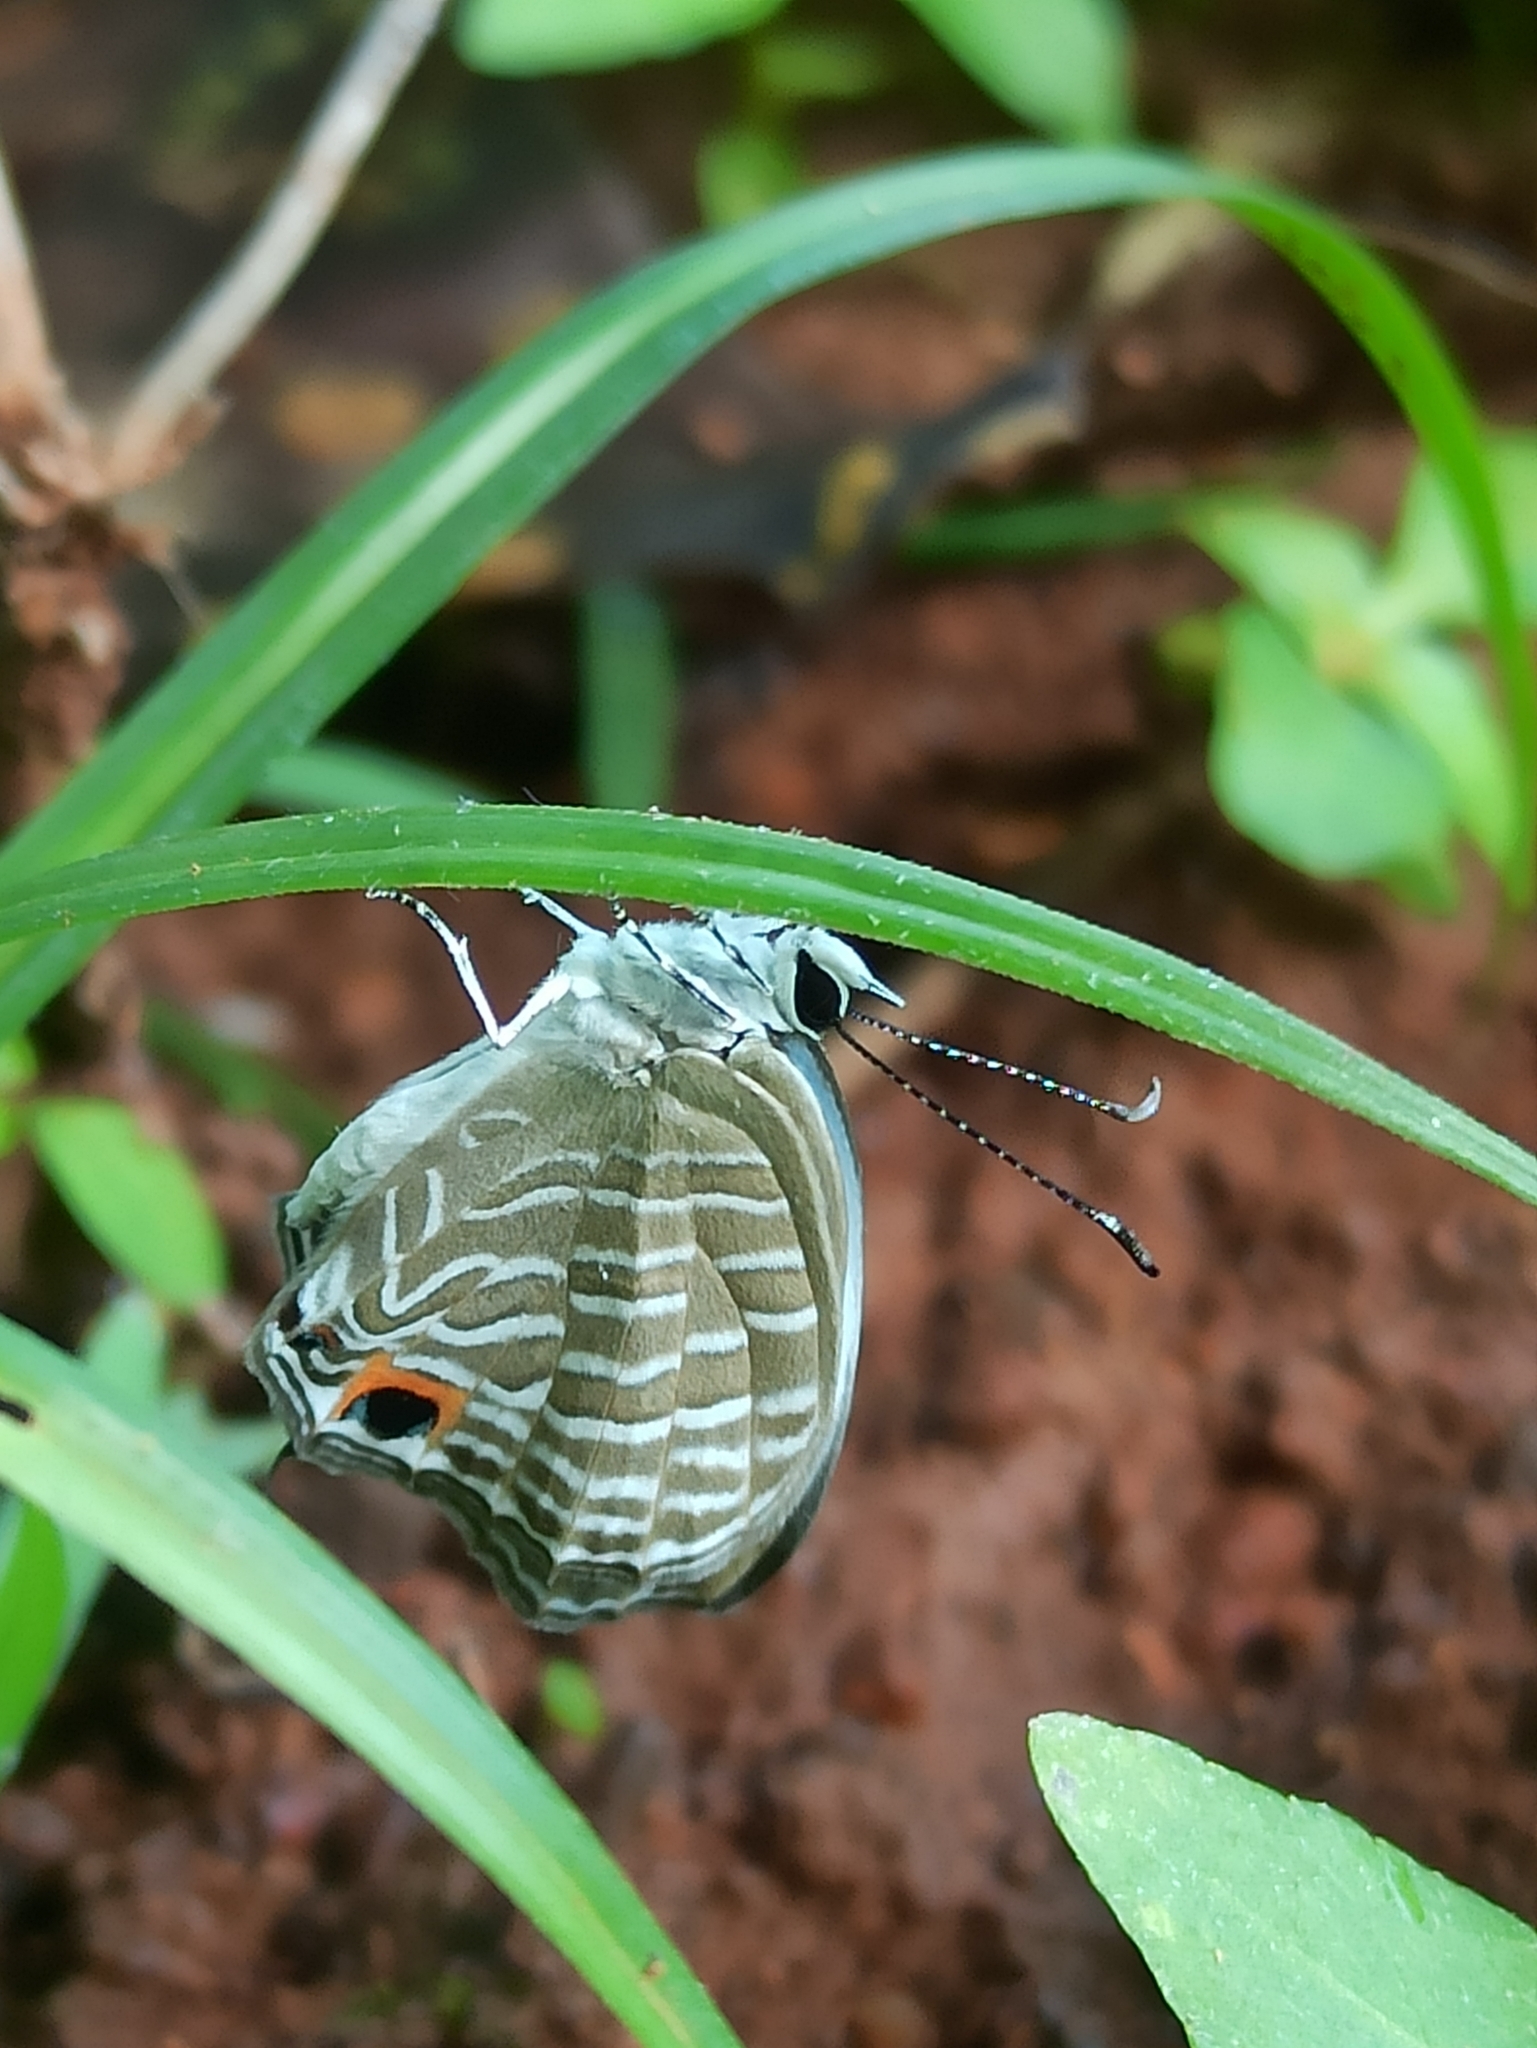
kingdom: Animalia
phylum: Arthropoda
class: Insecta
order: Lepidoptera
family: Lycaenidae
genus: Jamides
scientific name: Jamides celeno
